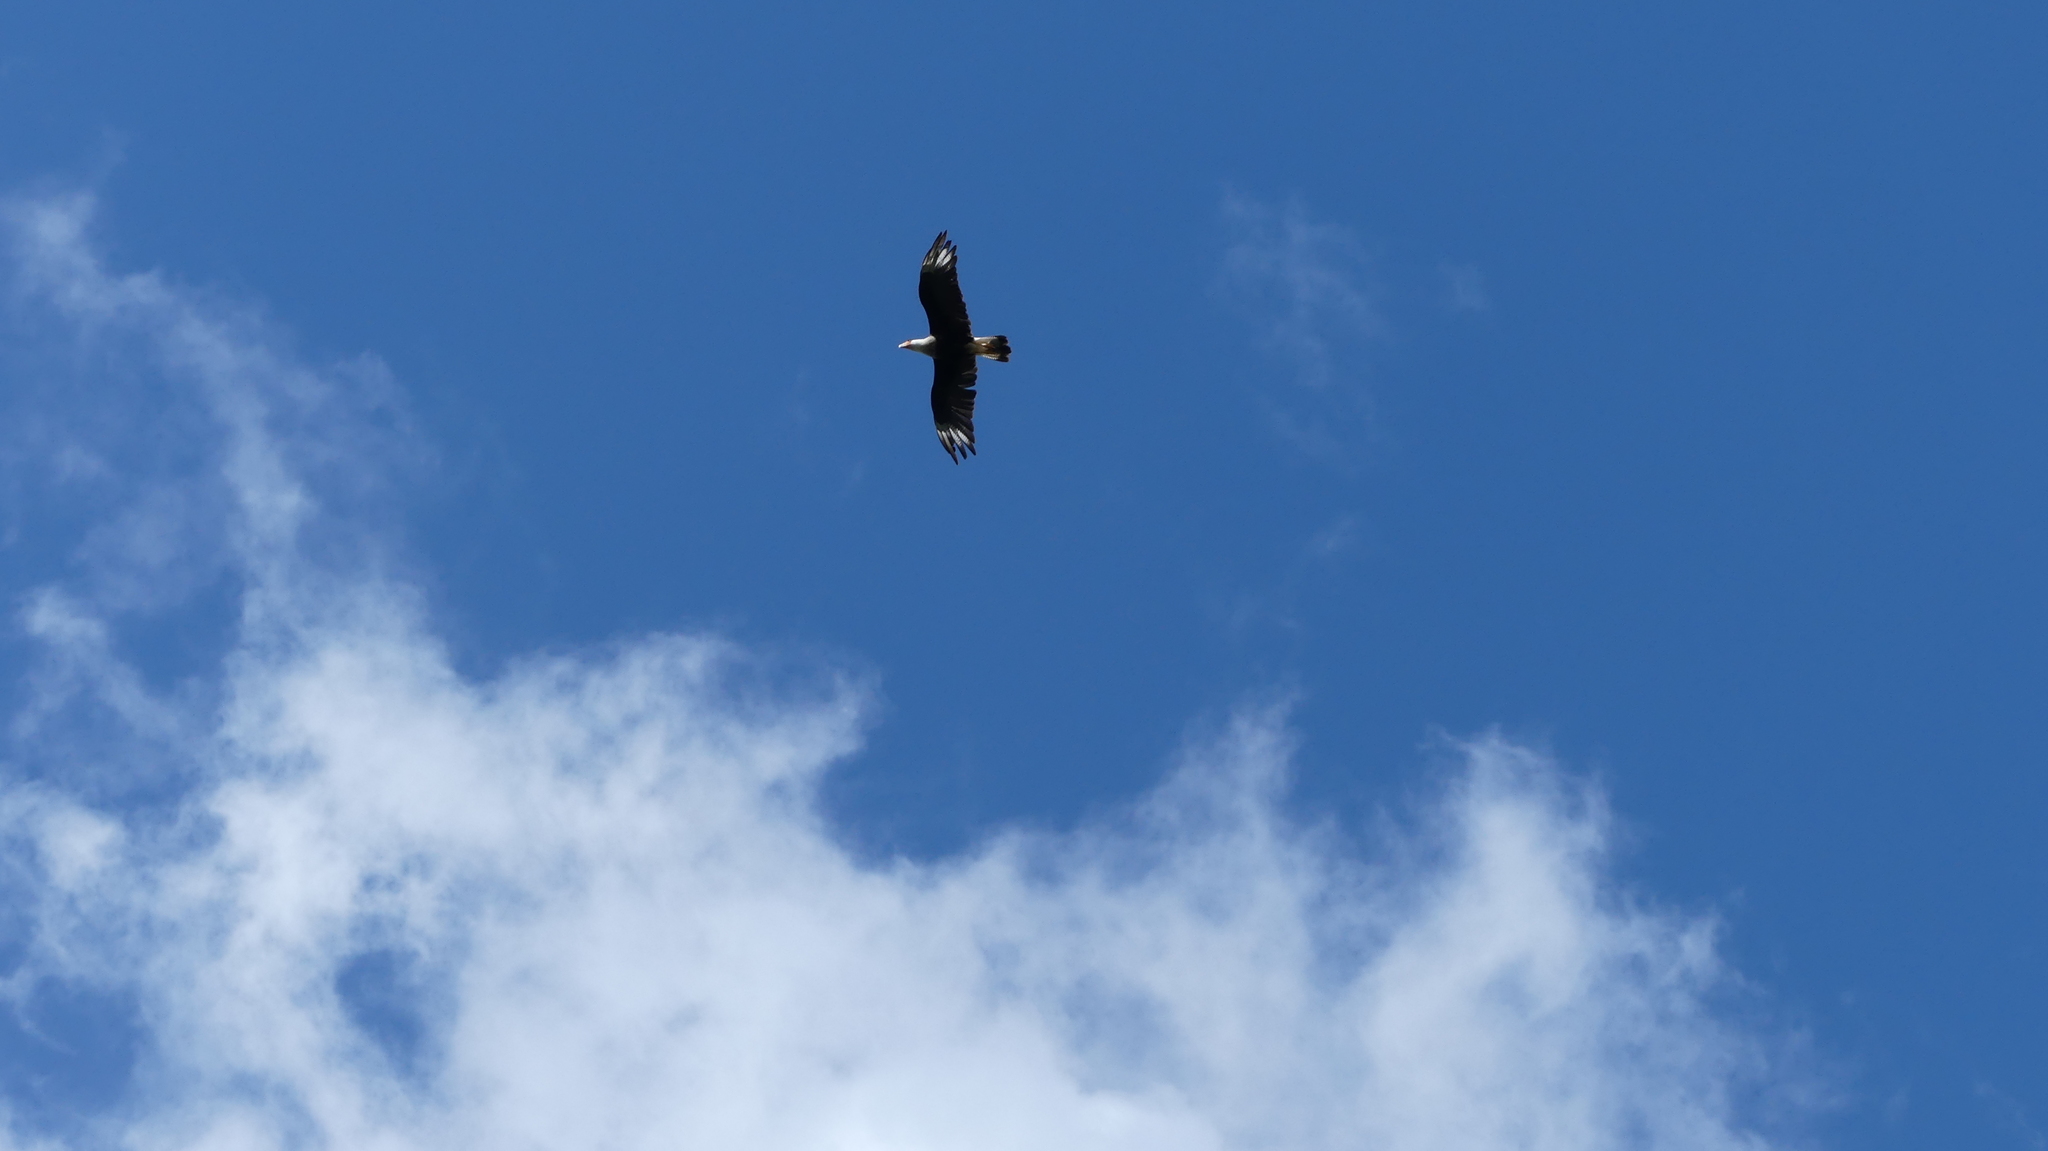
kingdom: Animalia
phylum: Chordata
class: Aves
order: Falconiformes
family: Falconidae
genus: Caracara
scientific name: Caracara plancus
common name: Southern caracara
